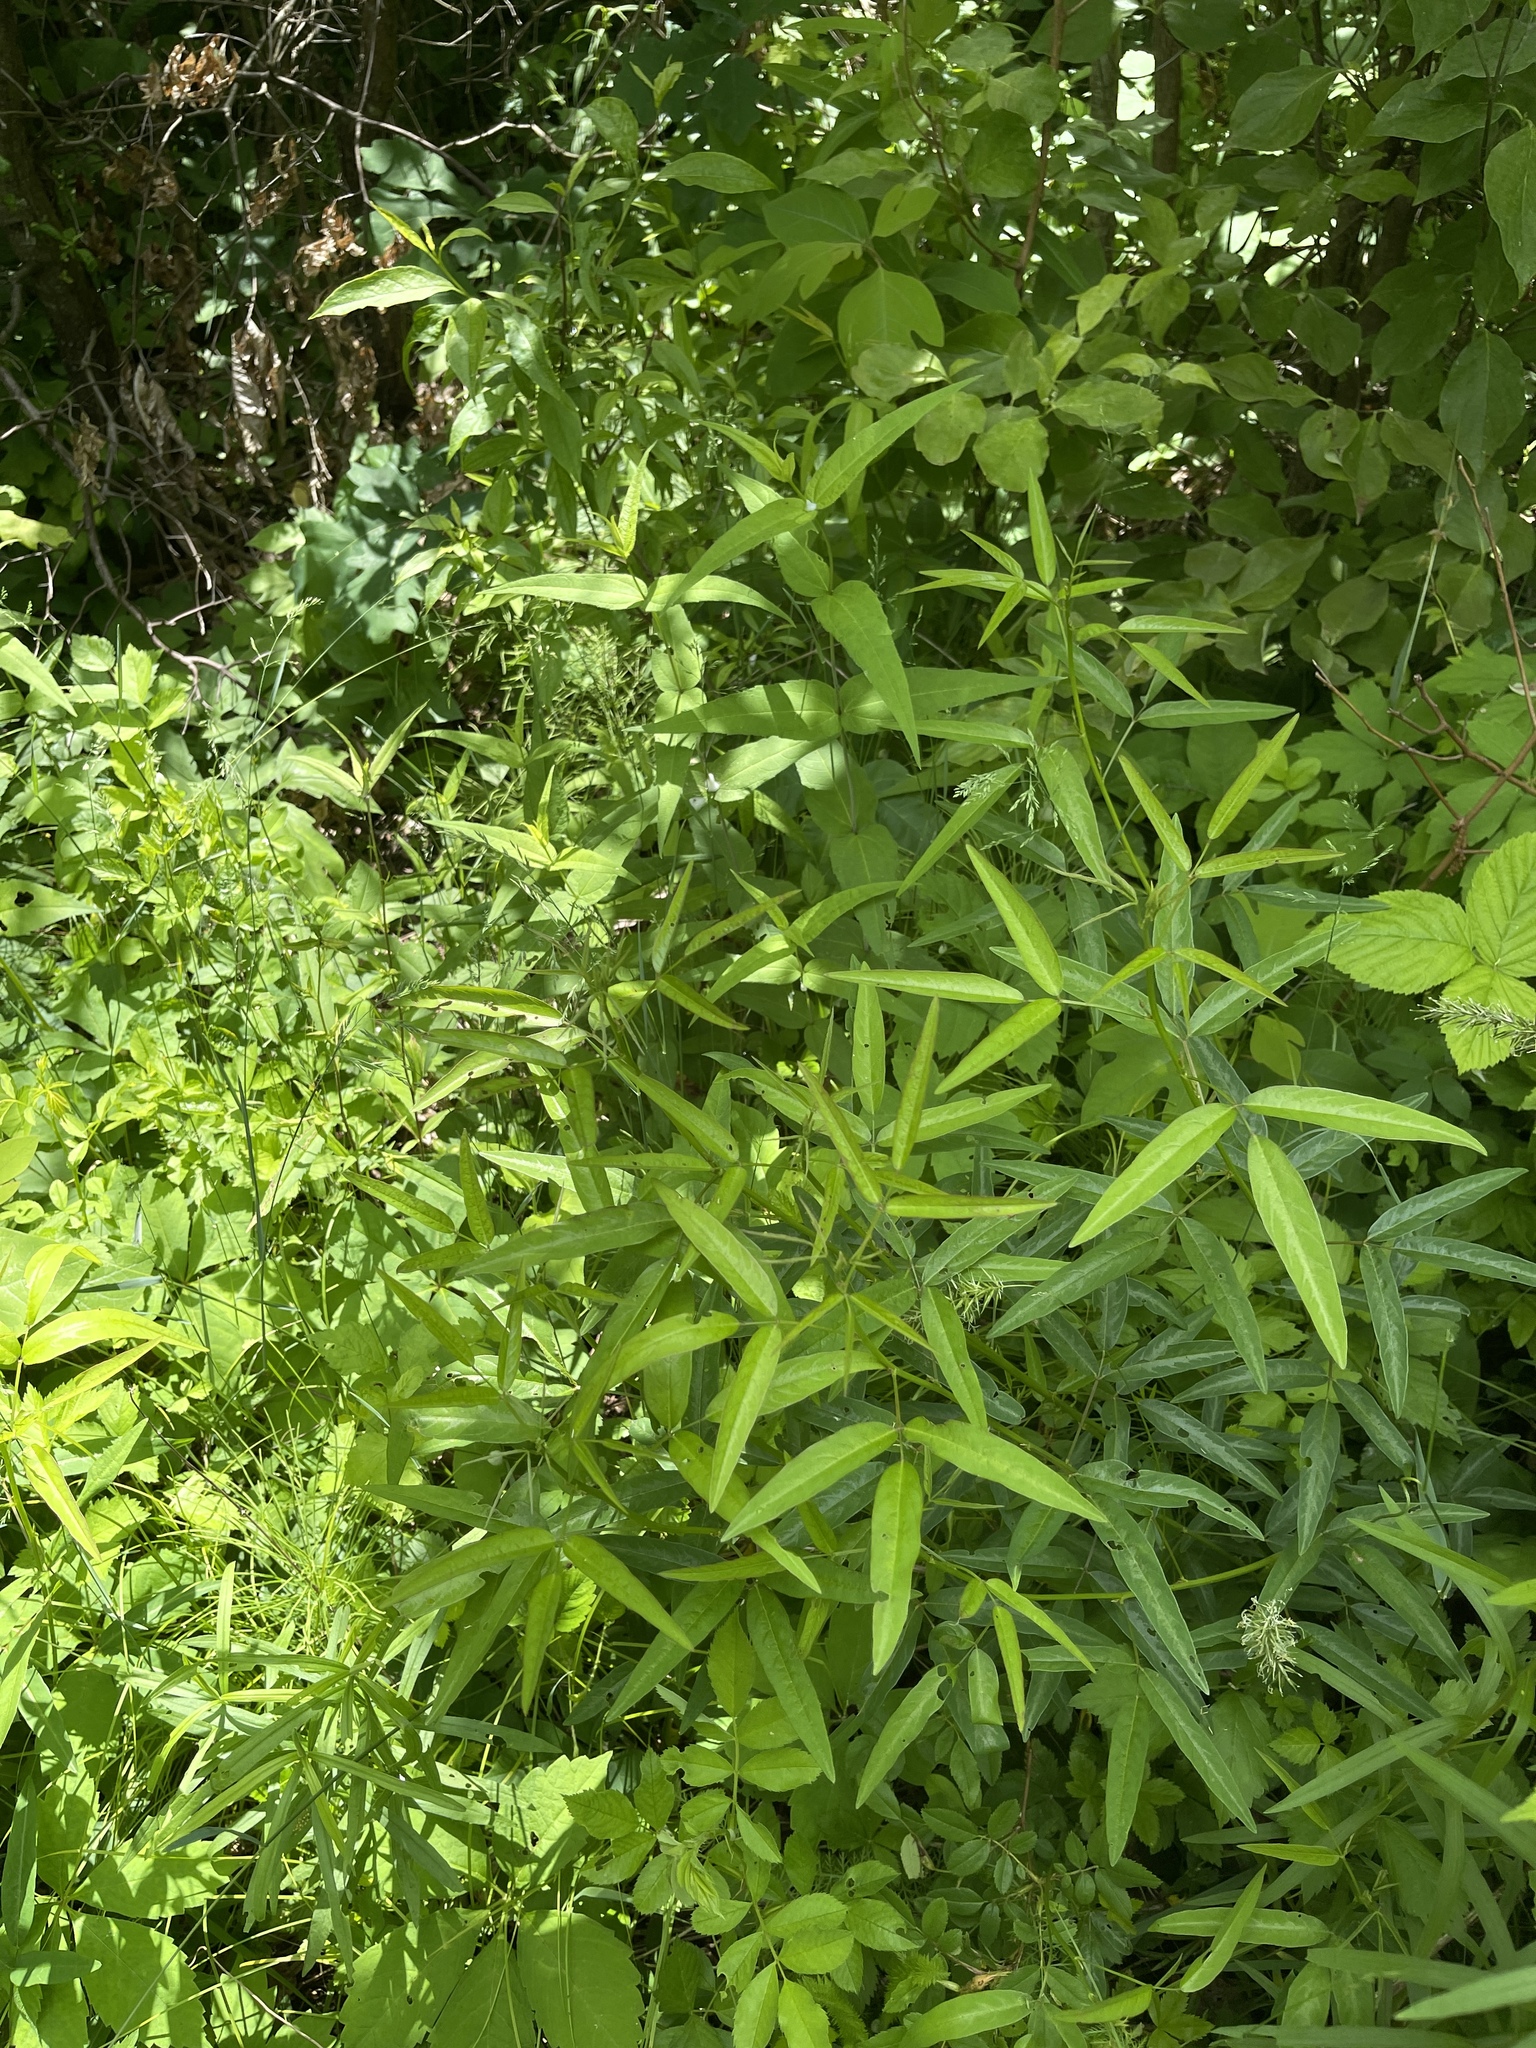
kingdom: Plantae
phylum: Tracheophyta
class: Magnoliopsida
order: Fabales
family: Fabaceae
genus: Desmodium
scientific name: Desmodium paniculatum
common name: Panicled tick-clover
